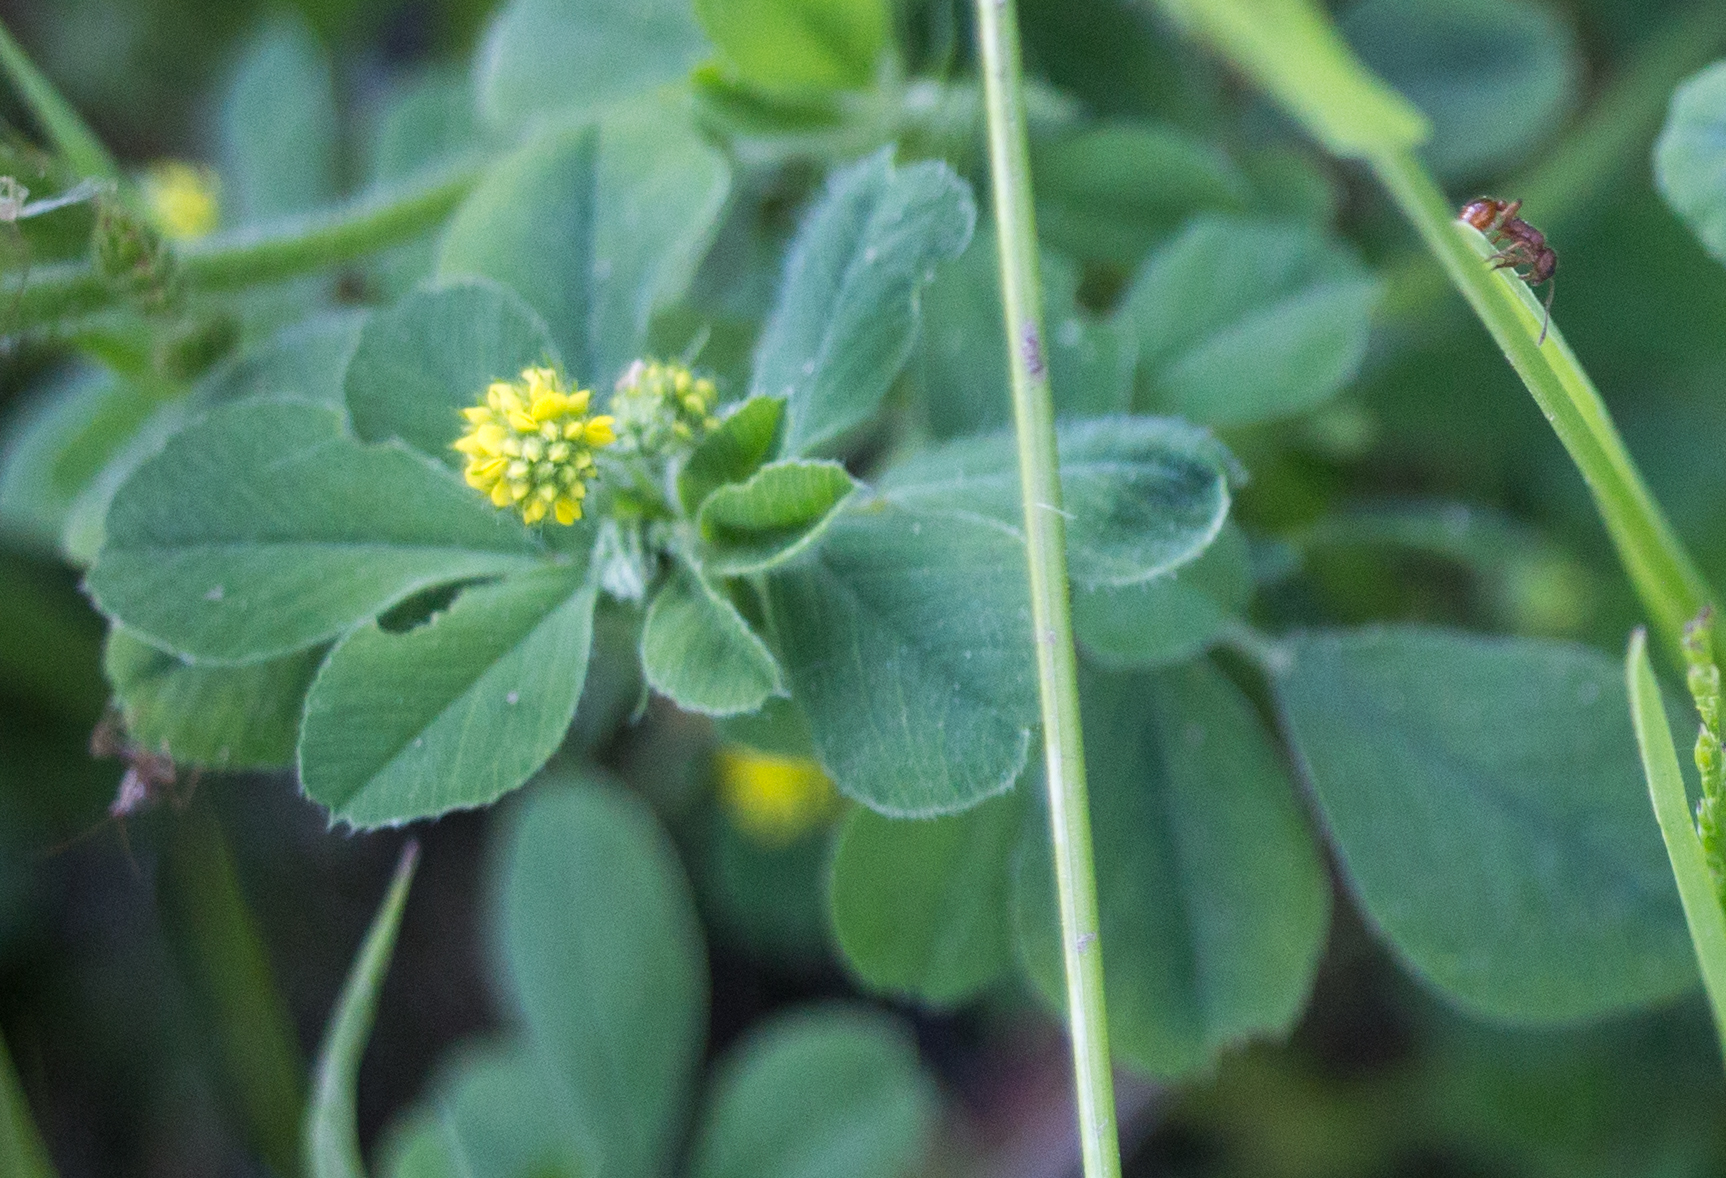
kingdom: Plantae
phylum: Tracheophyta
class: Magnoliopsida
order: Fabales
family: Fabaceae
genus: Medicago
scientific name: Medicago lupulina
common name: Black medick
